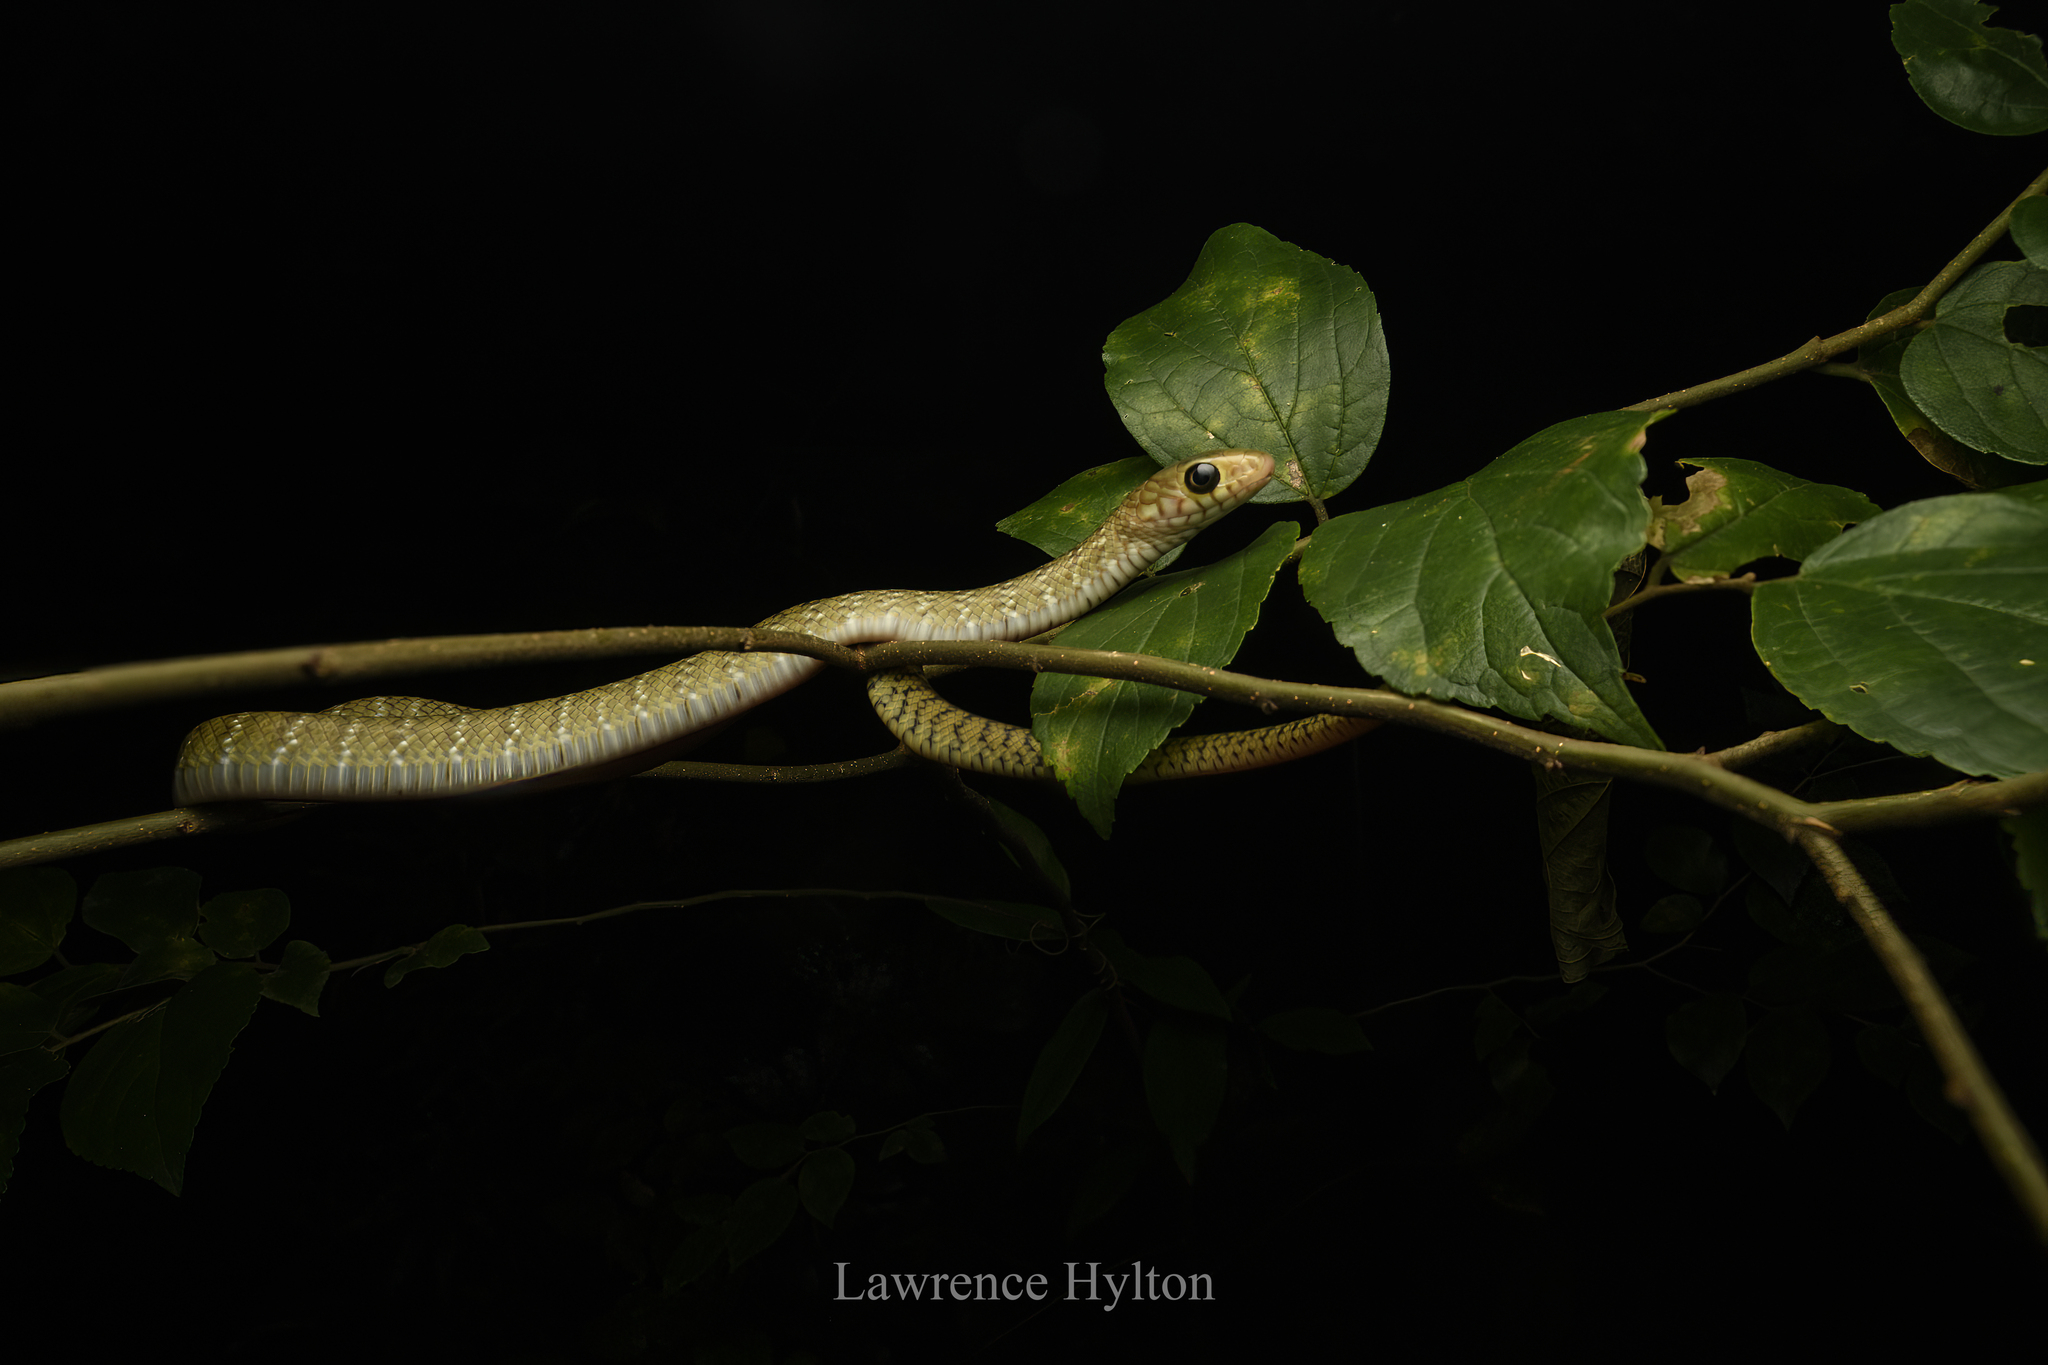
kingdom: Animalia
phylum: Chordata
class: Squamata
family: Colubridae
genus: Ptyas
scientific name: Ptyas mucosa
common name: Oriental ratsnake
